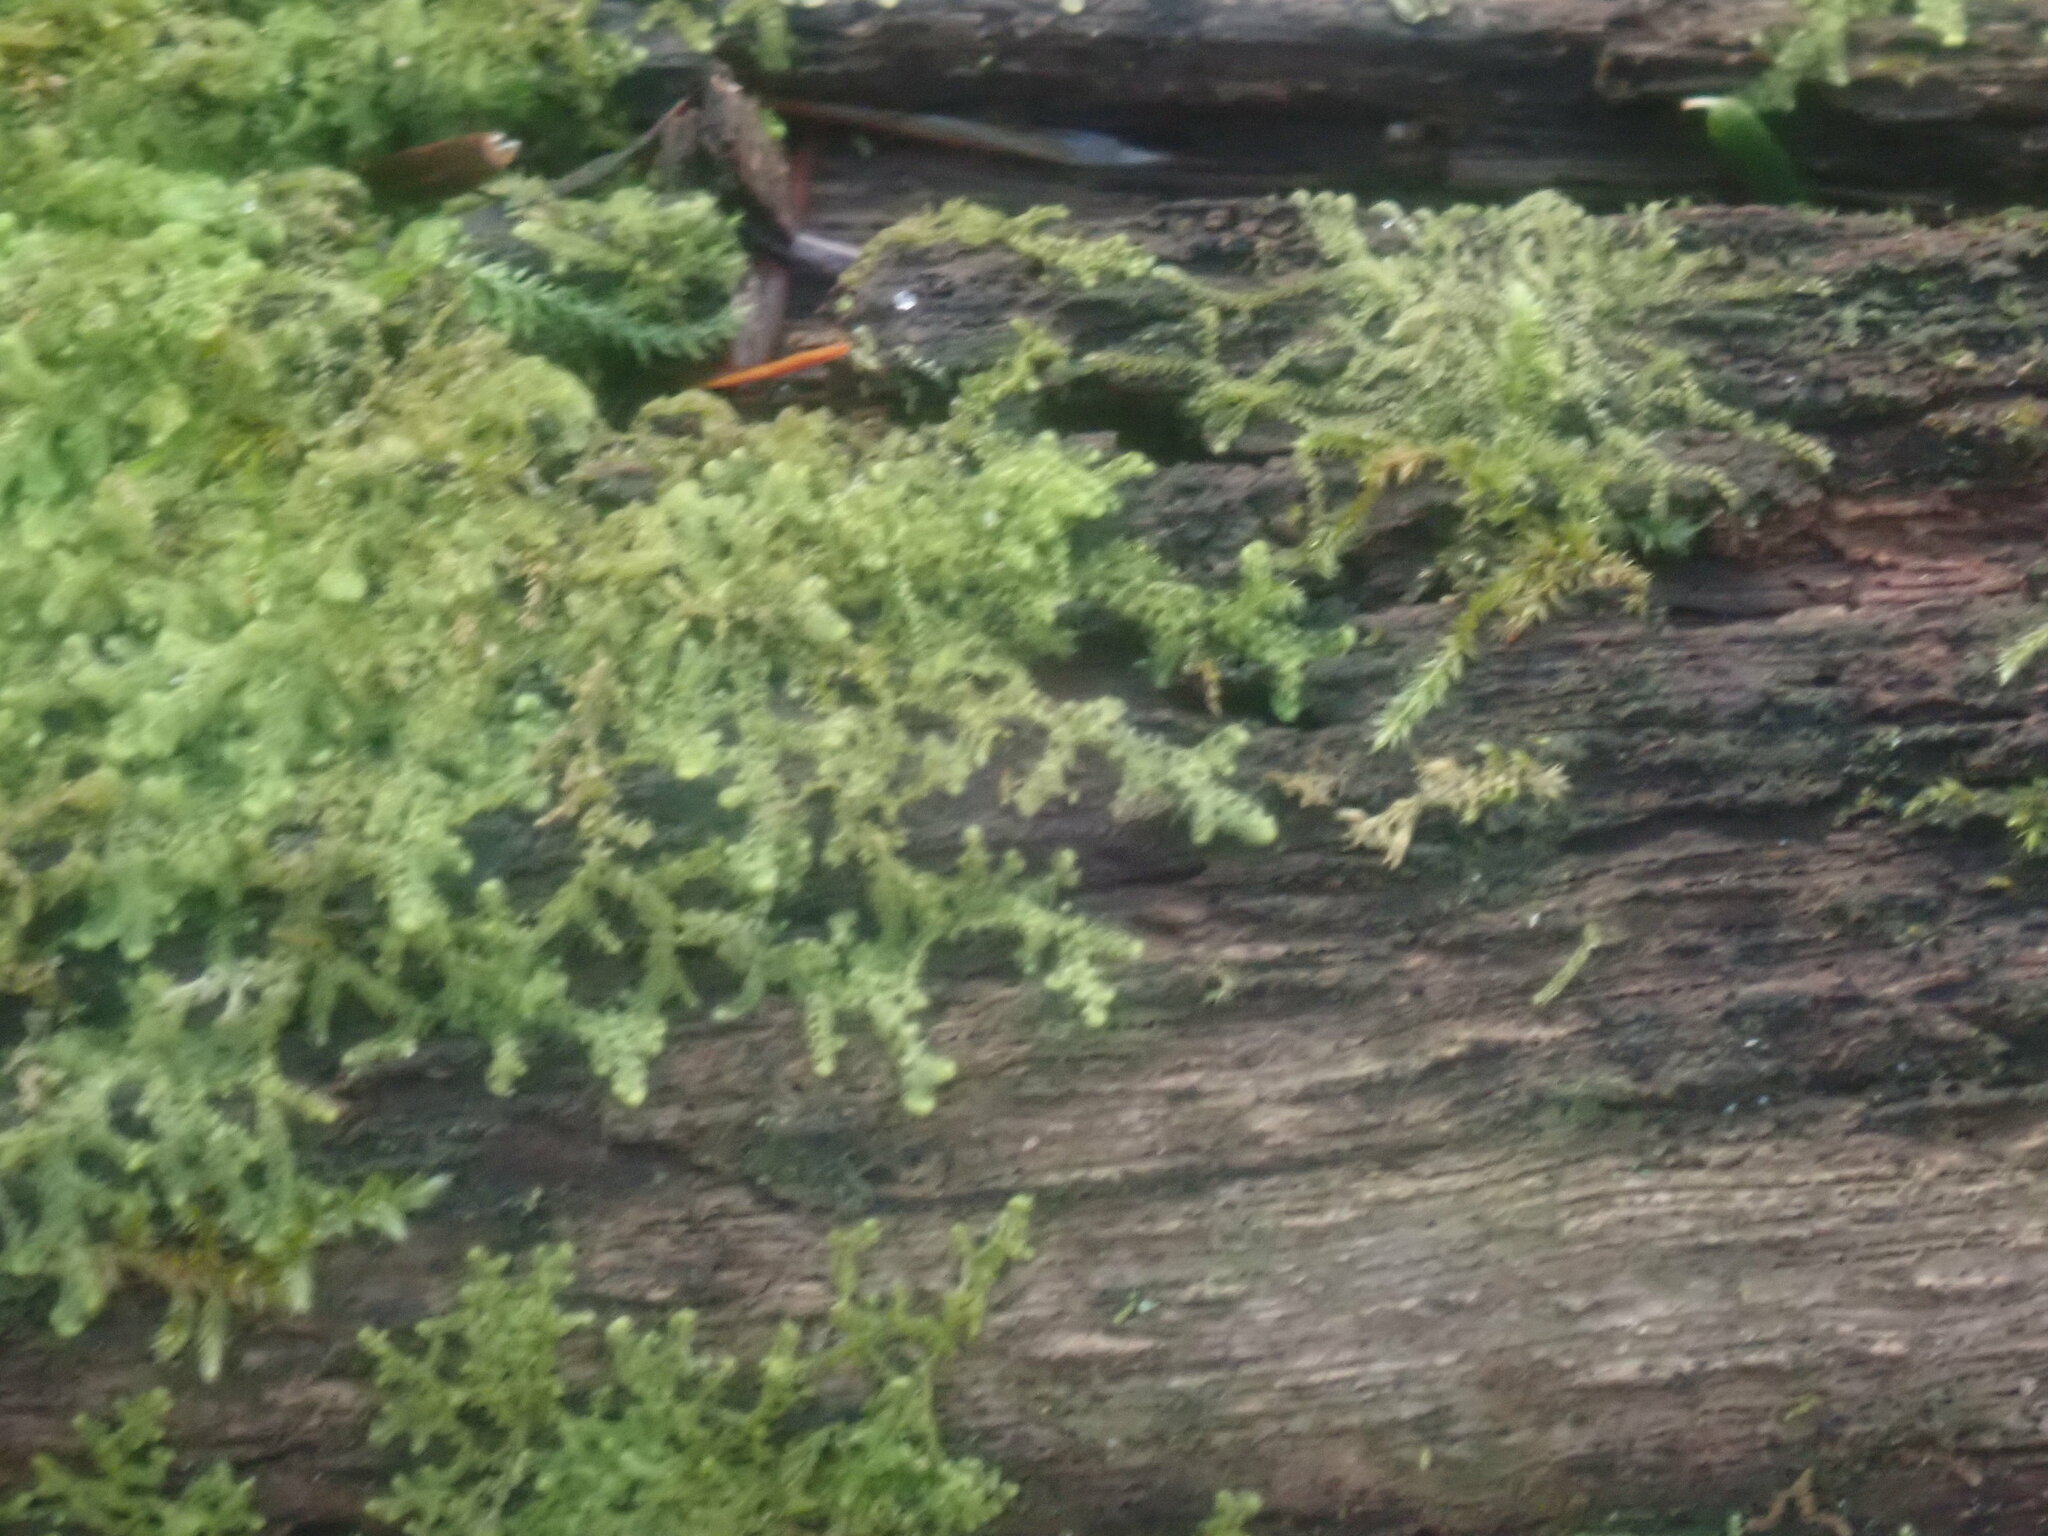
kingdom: Plantae
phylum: Marchantiophyta
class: Jungermanniopsida
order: Ptilidiales
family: Ptilidiaceae
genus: Ptilidium
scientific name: Ptilidium pulcherrimum
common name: Tree fringewort
